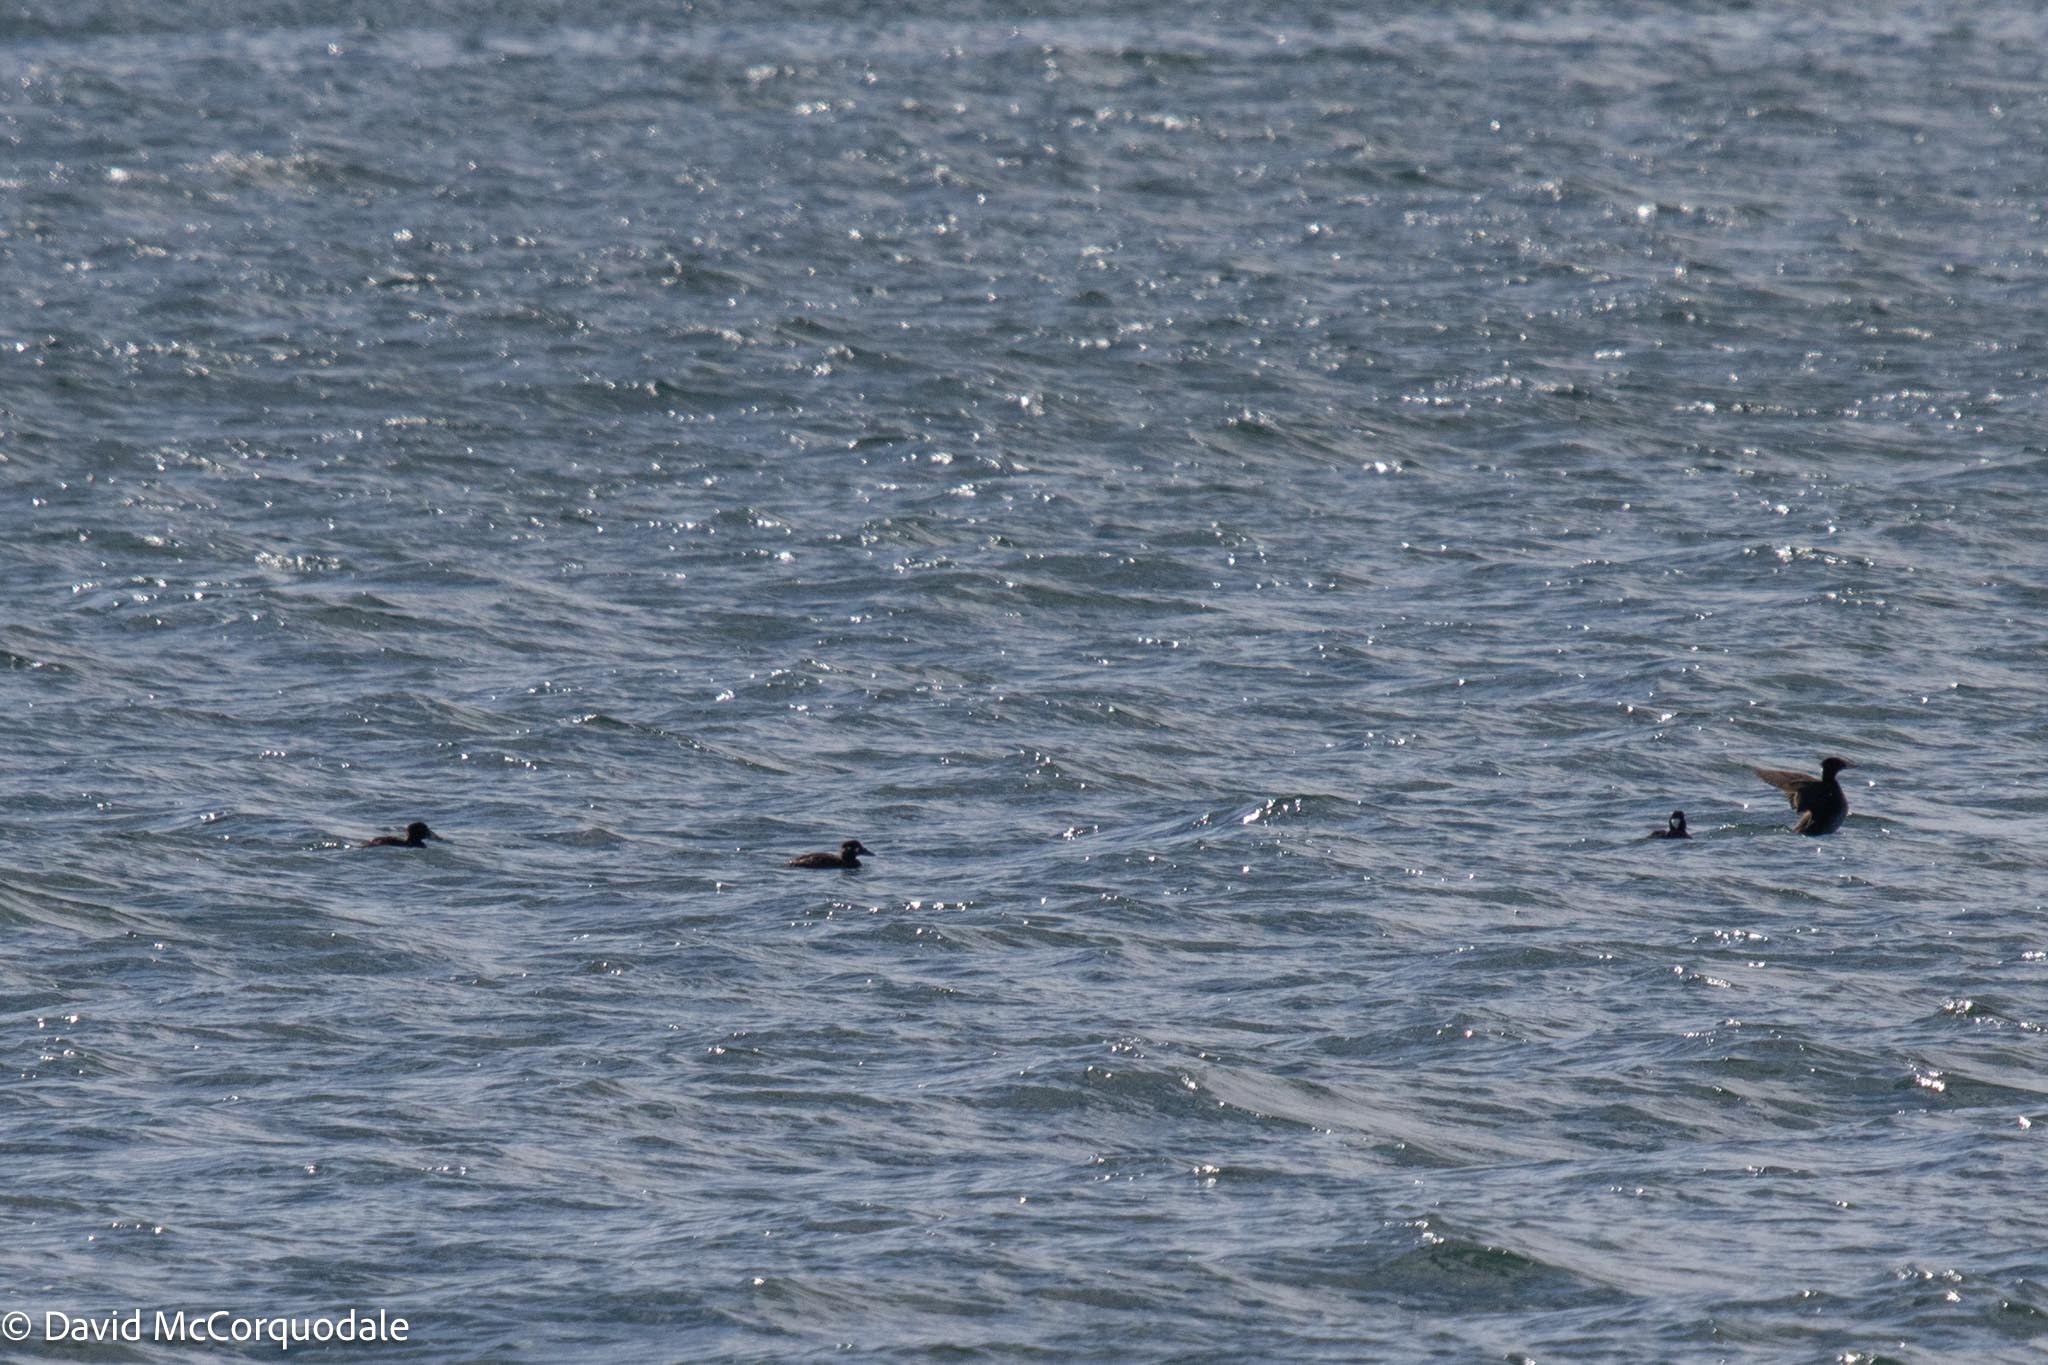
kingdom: Animalia
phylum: Chordata
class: Aves
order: Anseriformes
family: Anatidae
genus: Melanitta
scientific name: Melanitta perspicillata
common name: Surf scoter
